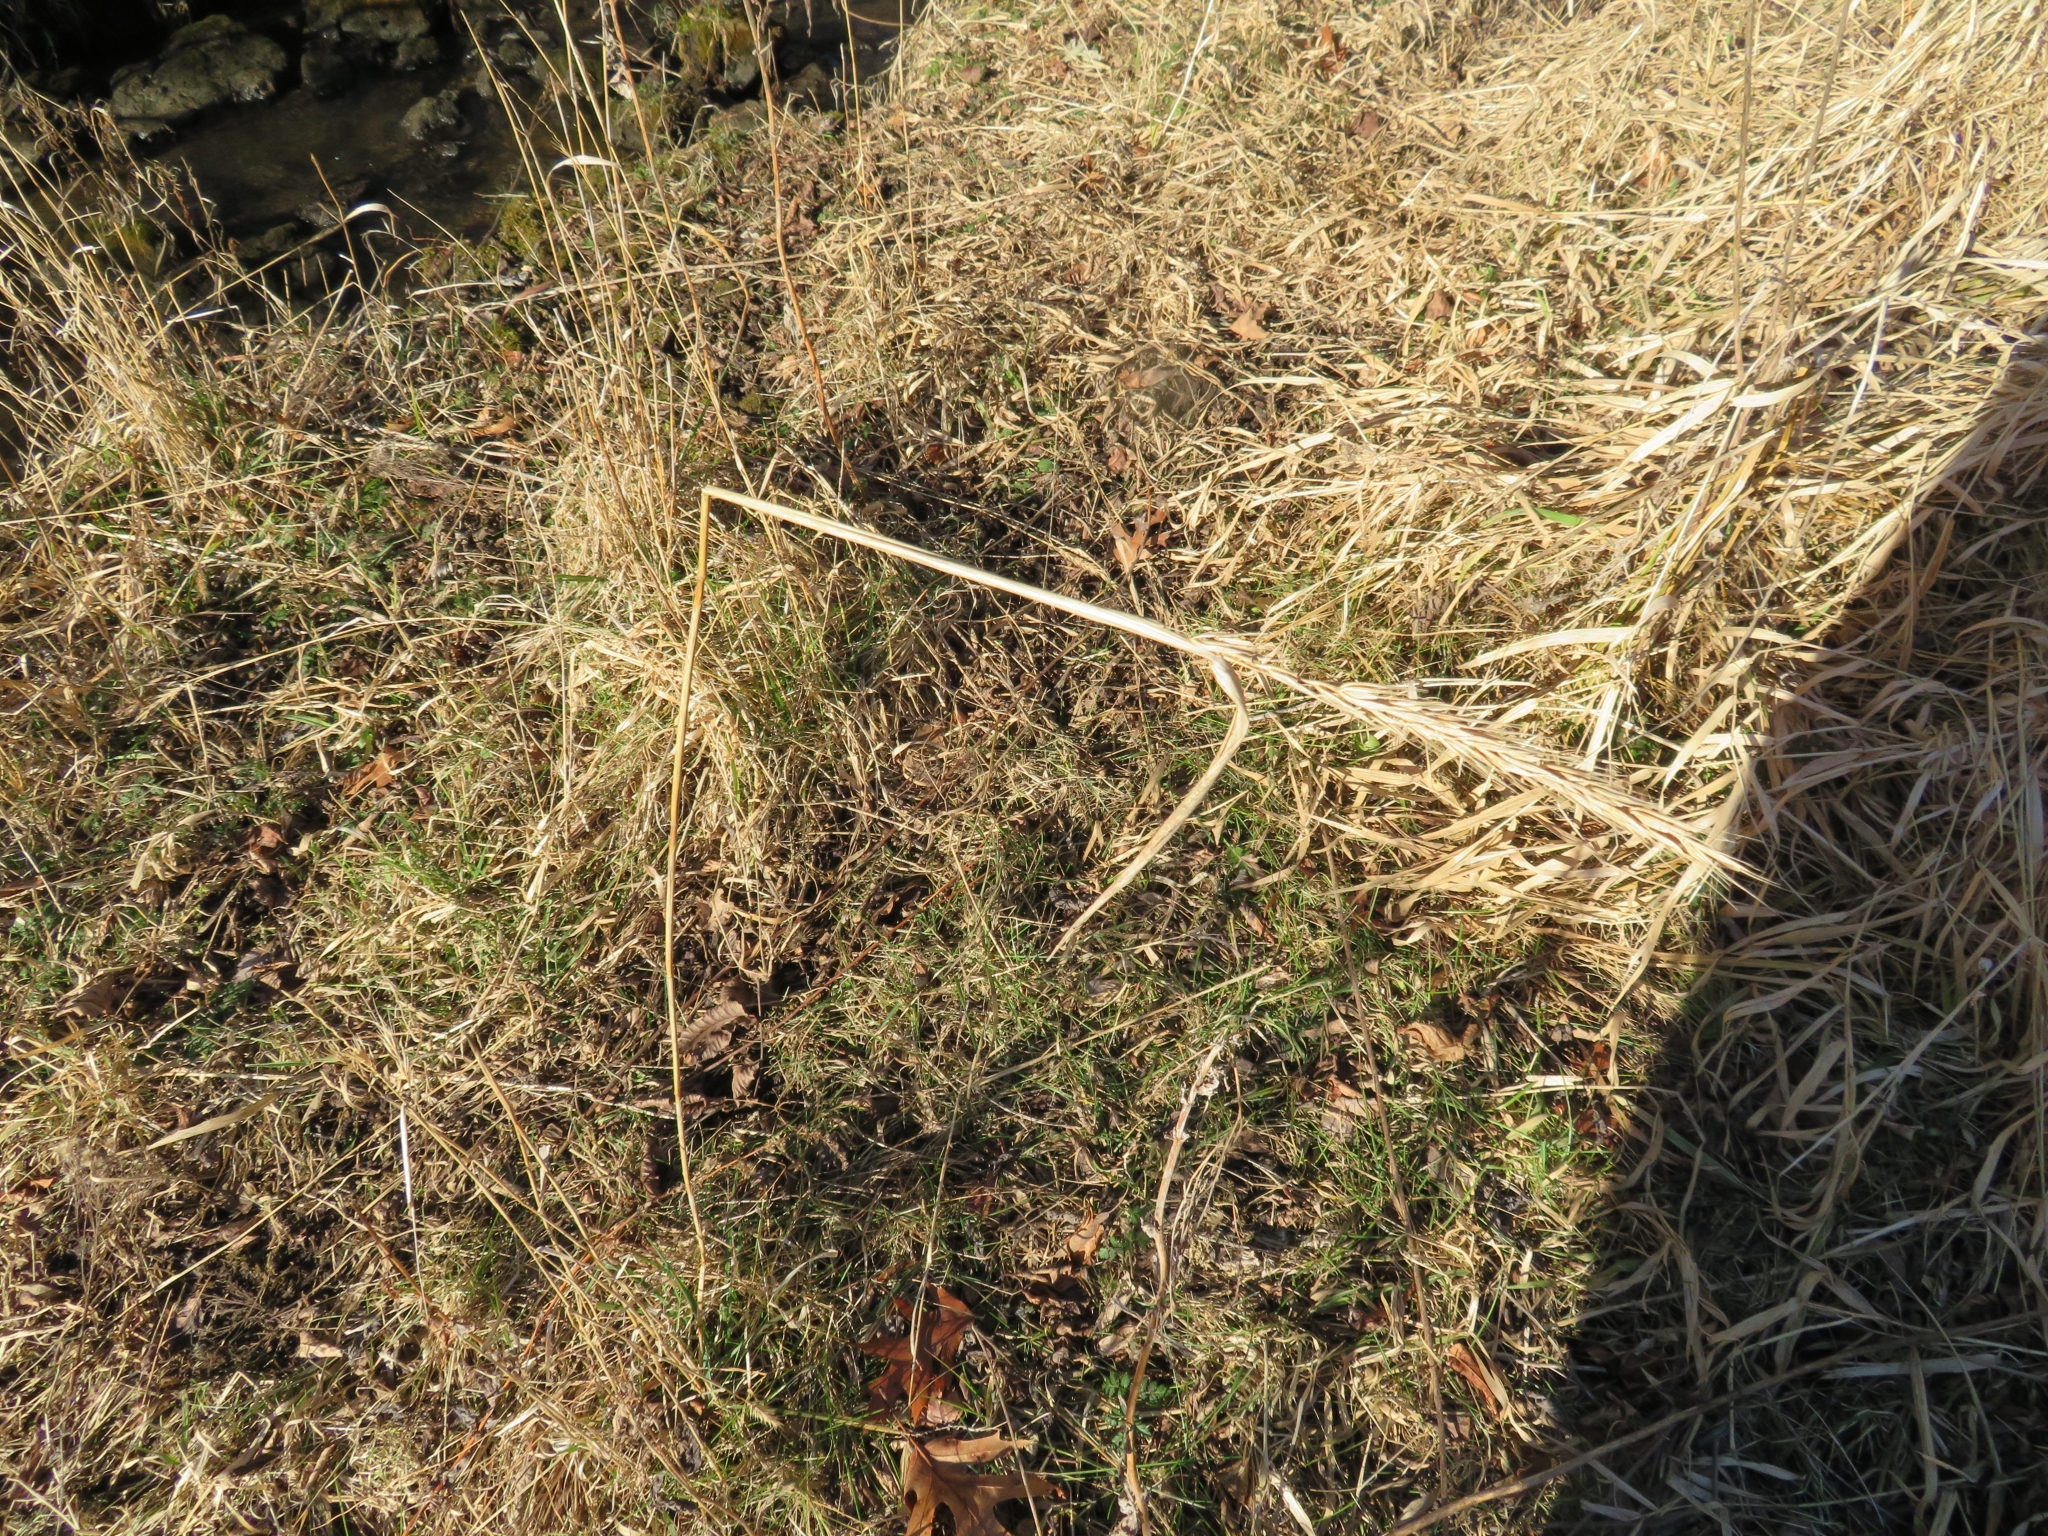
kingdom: Plantae
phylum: Tracheophyta
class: Liliopsida
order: Poales
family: Poaceae
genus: Elymus
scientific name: Elymus virginicus
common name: Common eastern wildrye
